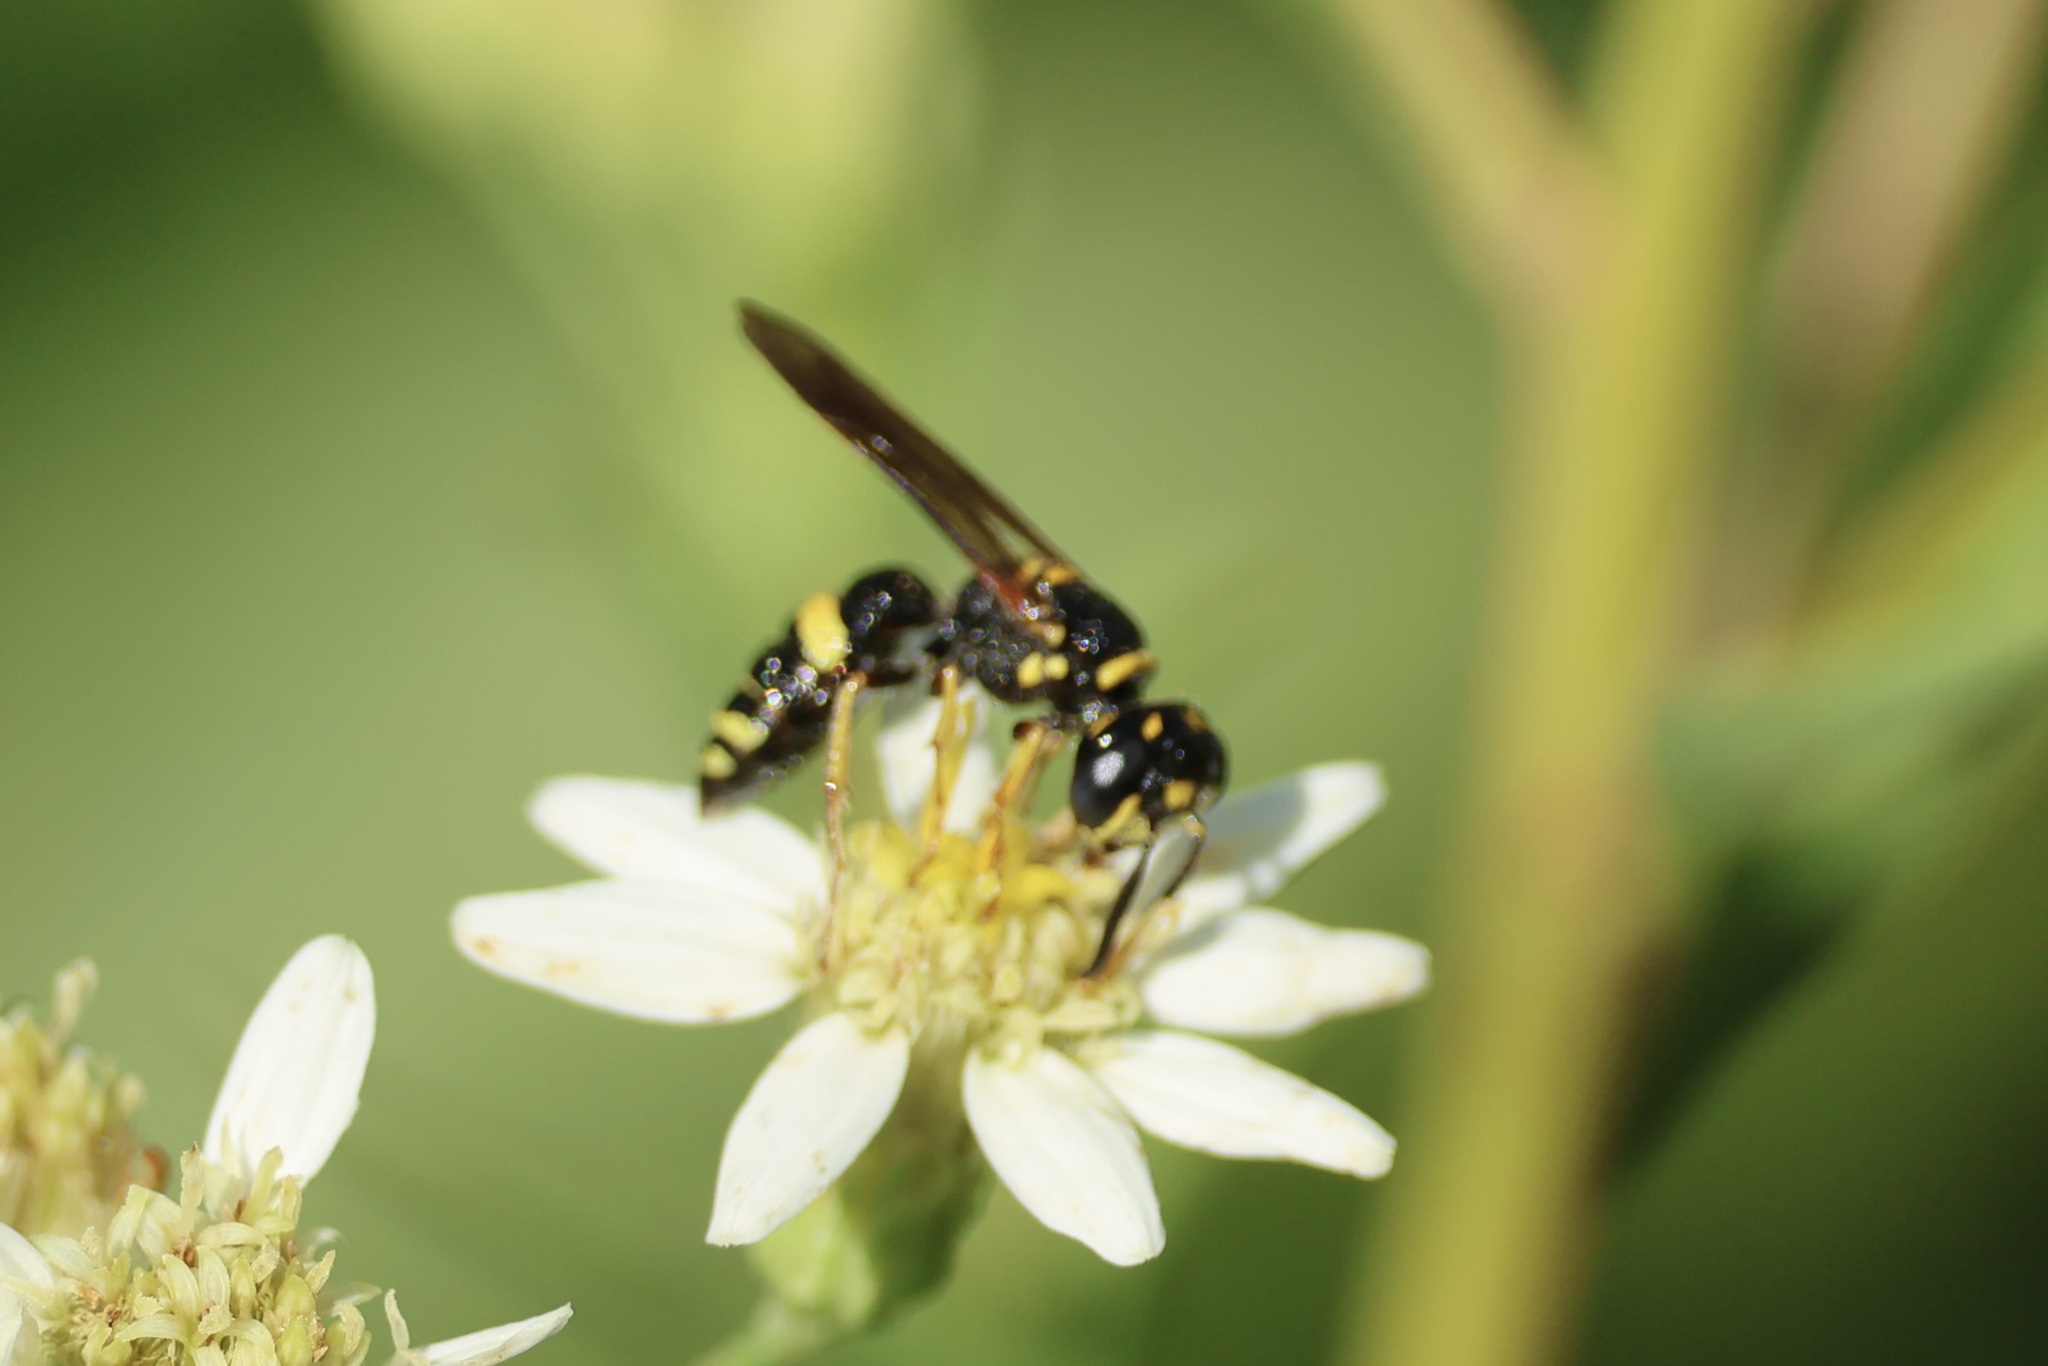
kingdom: Animalia
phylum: Arthropoda
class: Insecta
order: Hymenoptera
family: Crabronidae
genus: Philanthus
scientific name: Philanthus gibbosus
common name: Humped beewolf
